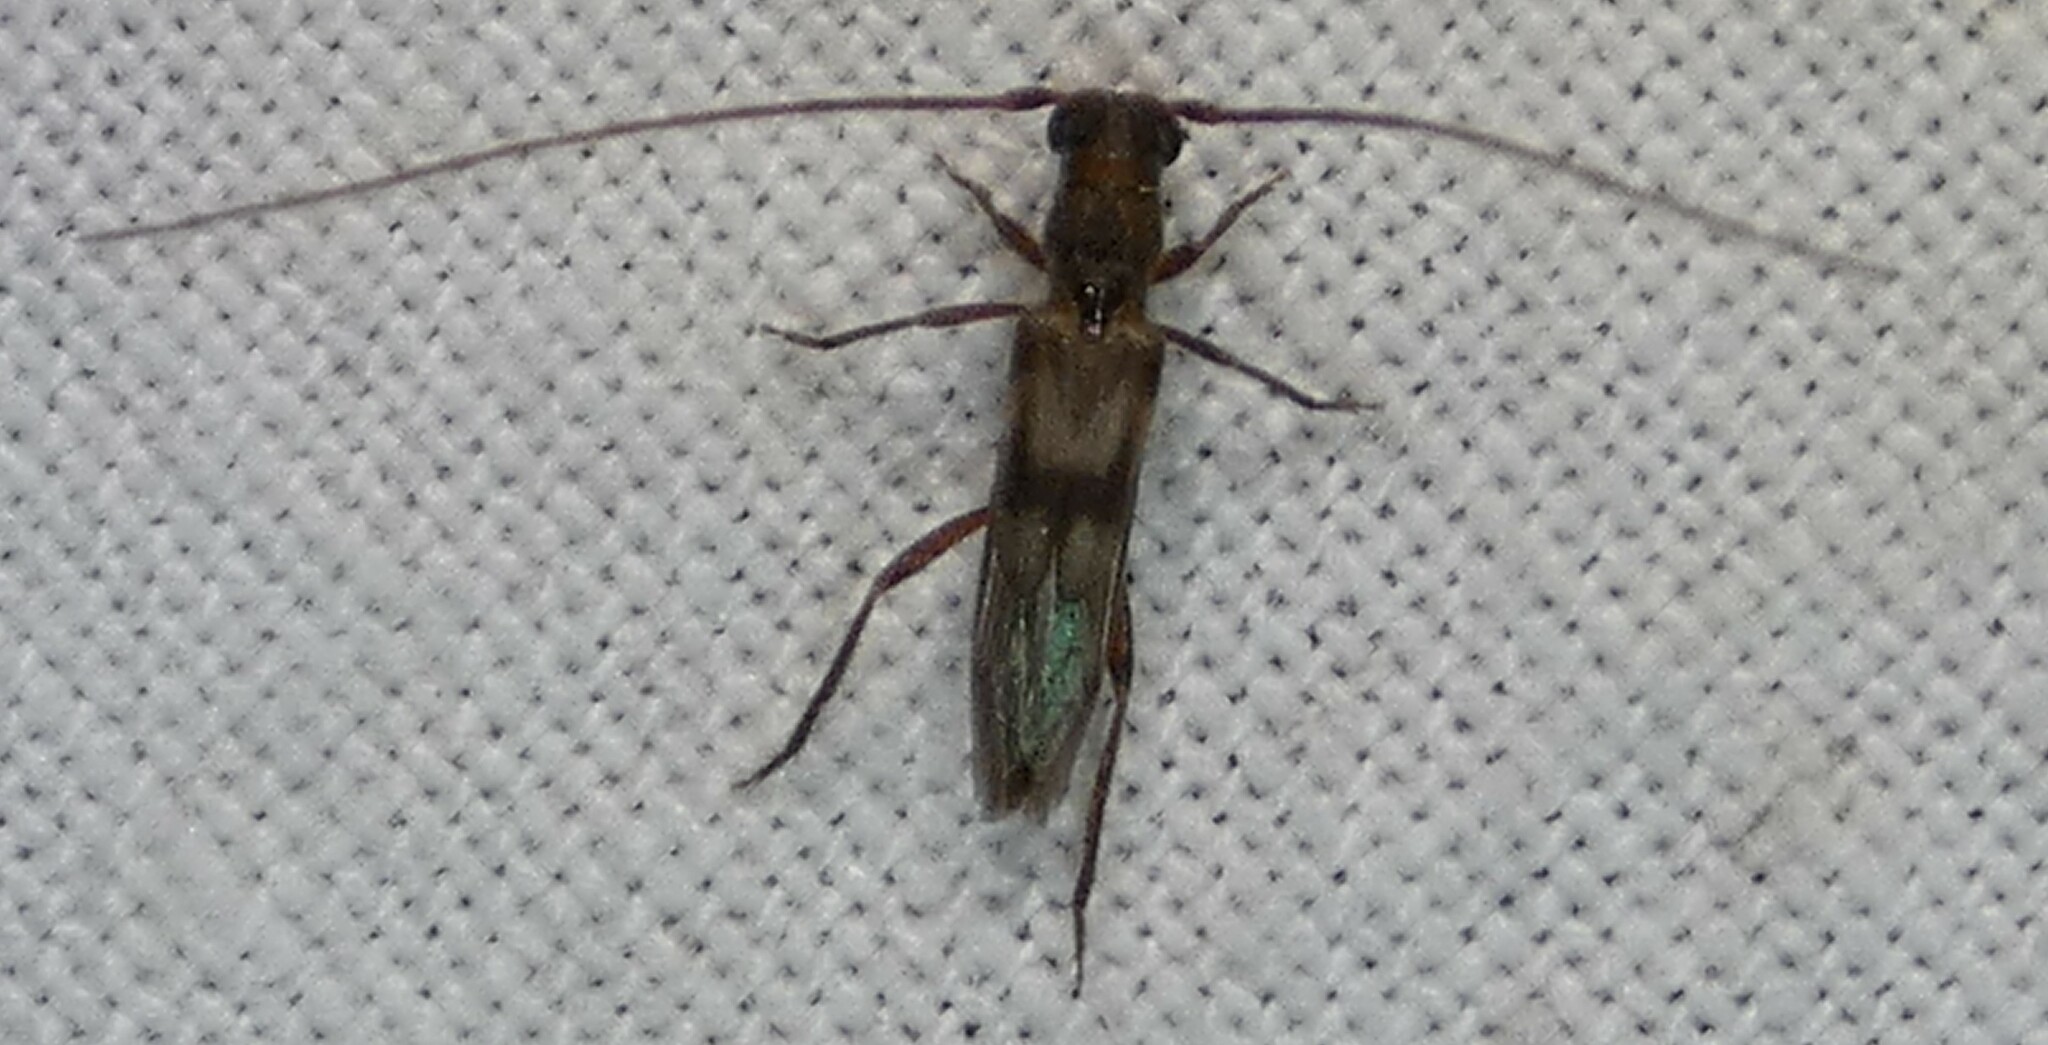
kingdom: Animalia
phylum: Arthropoda
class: Insecta
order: Coleoptera
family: Cerambycidae
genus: Methia
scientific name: Methia necydalea
